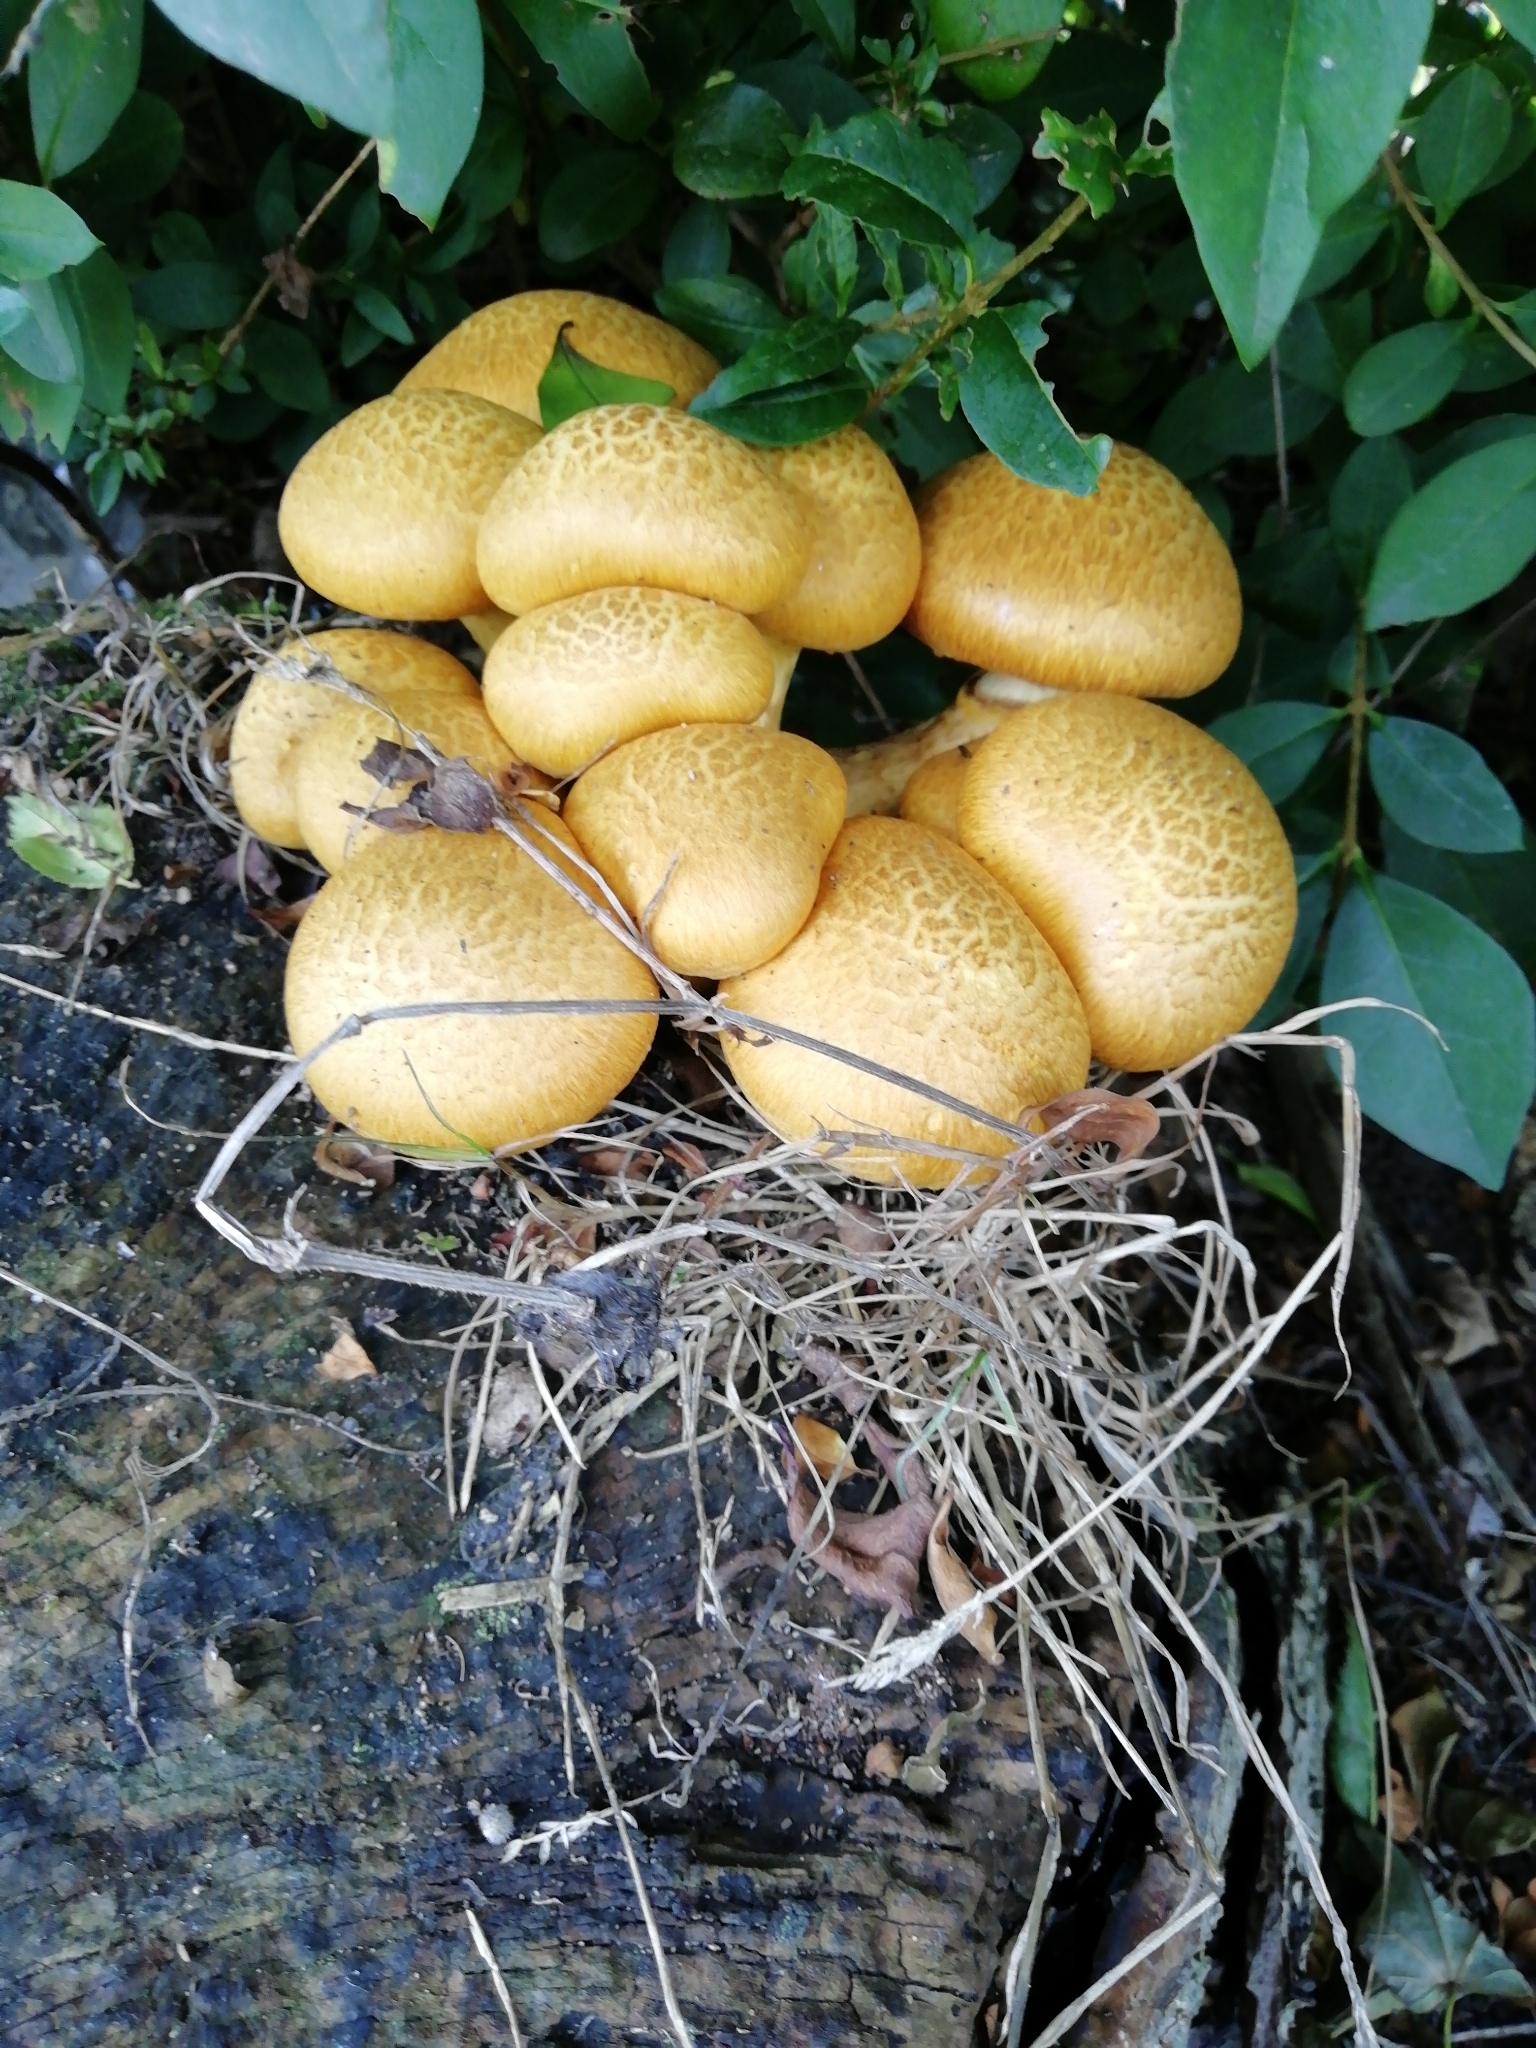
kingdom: Fungi
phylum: Basidiomycota
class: Agaricomycetes
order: Agaricales
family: Hymenogastraceae
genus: Gymnopilus
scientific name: Gymnopilus junonius
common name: Spectacular rustgill
